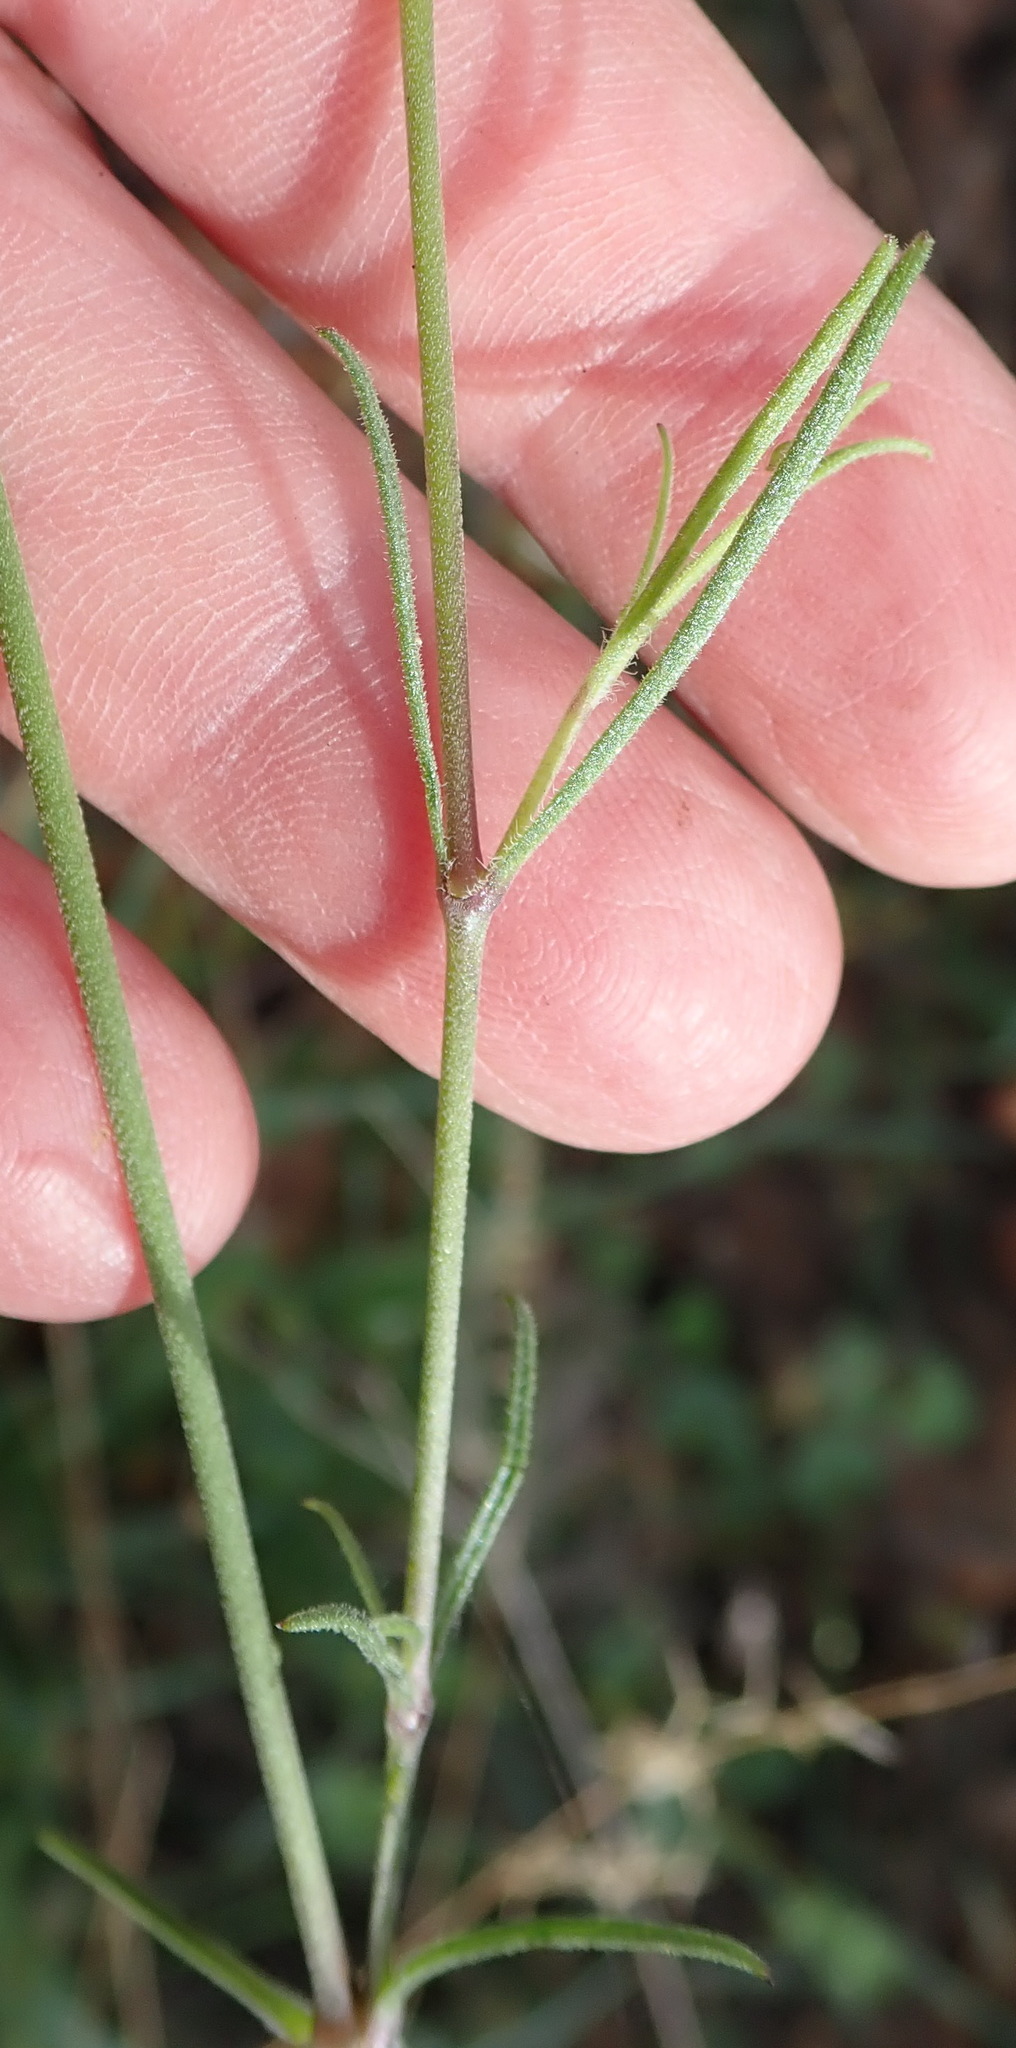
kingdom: Plantae
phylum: Tracheophyta
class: Magnoliopsida
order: Caryophyllales
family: Caryophyllaceae
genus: Silene
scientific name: Silene burchellii
